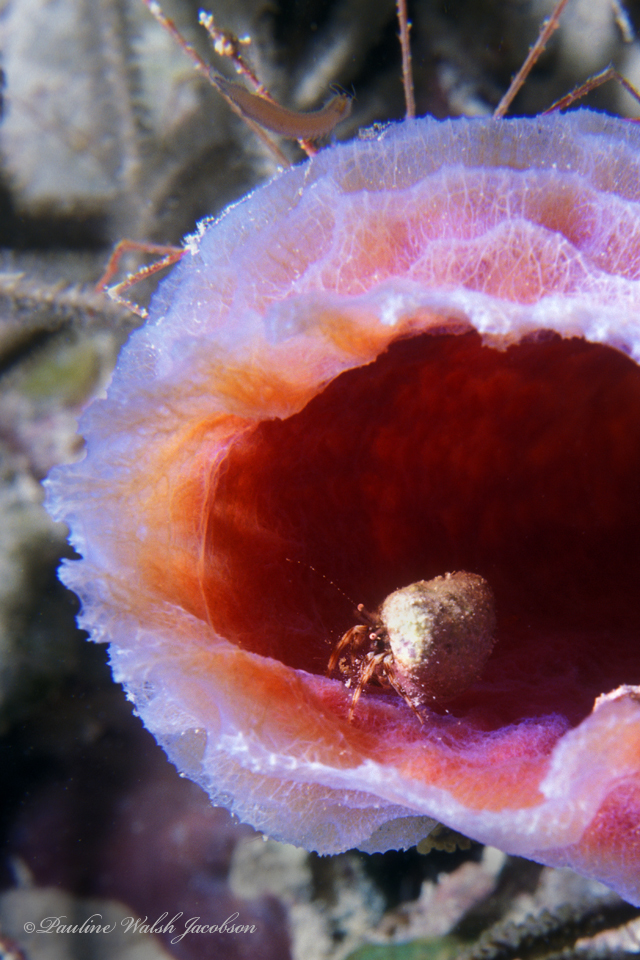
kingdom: Animalia
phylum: Arthropoda
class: Malacostraca
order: Decapoda
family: Paguridae
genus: Pagurus
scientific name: Pagurus brevidactylus
